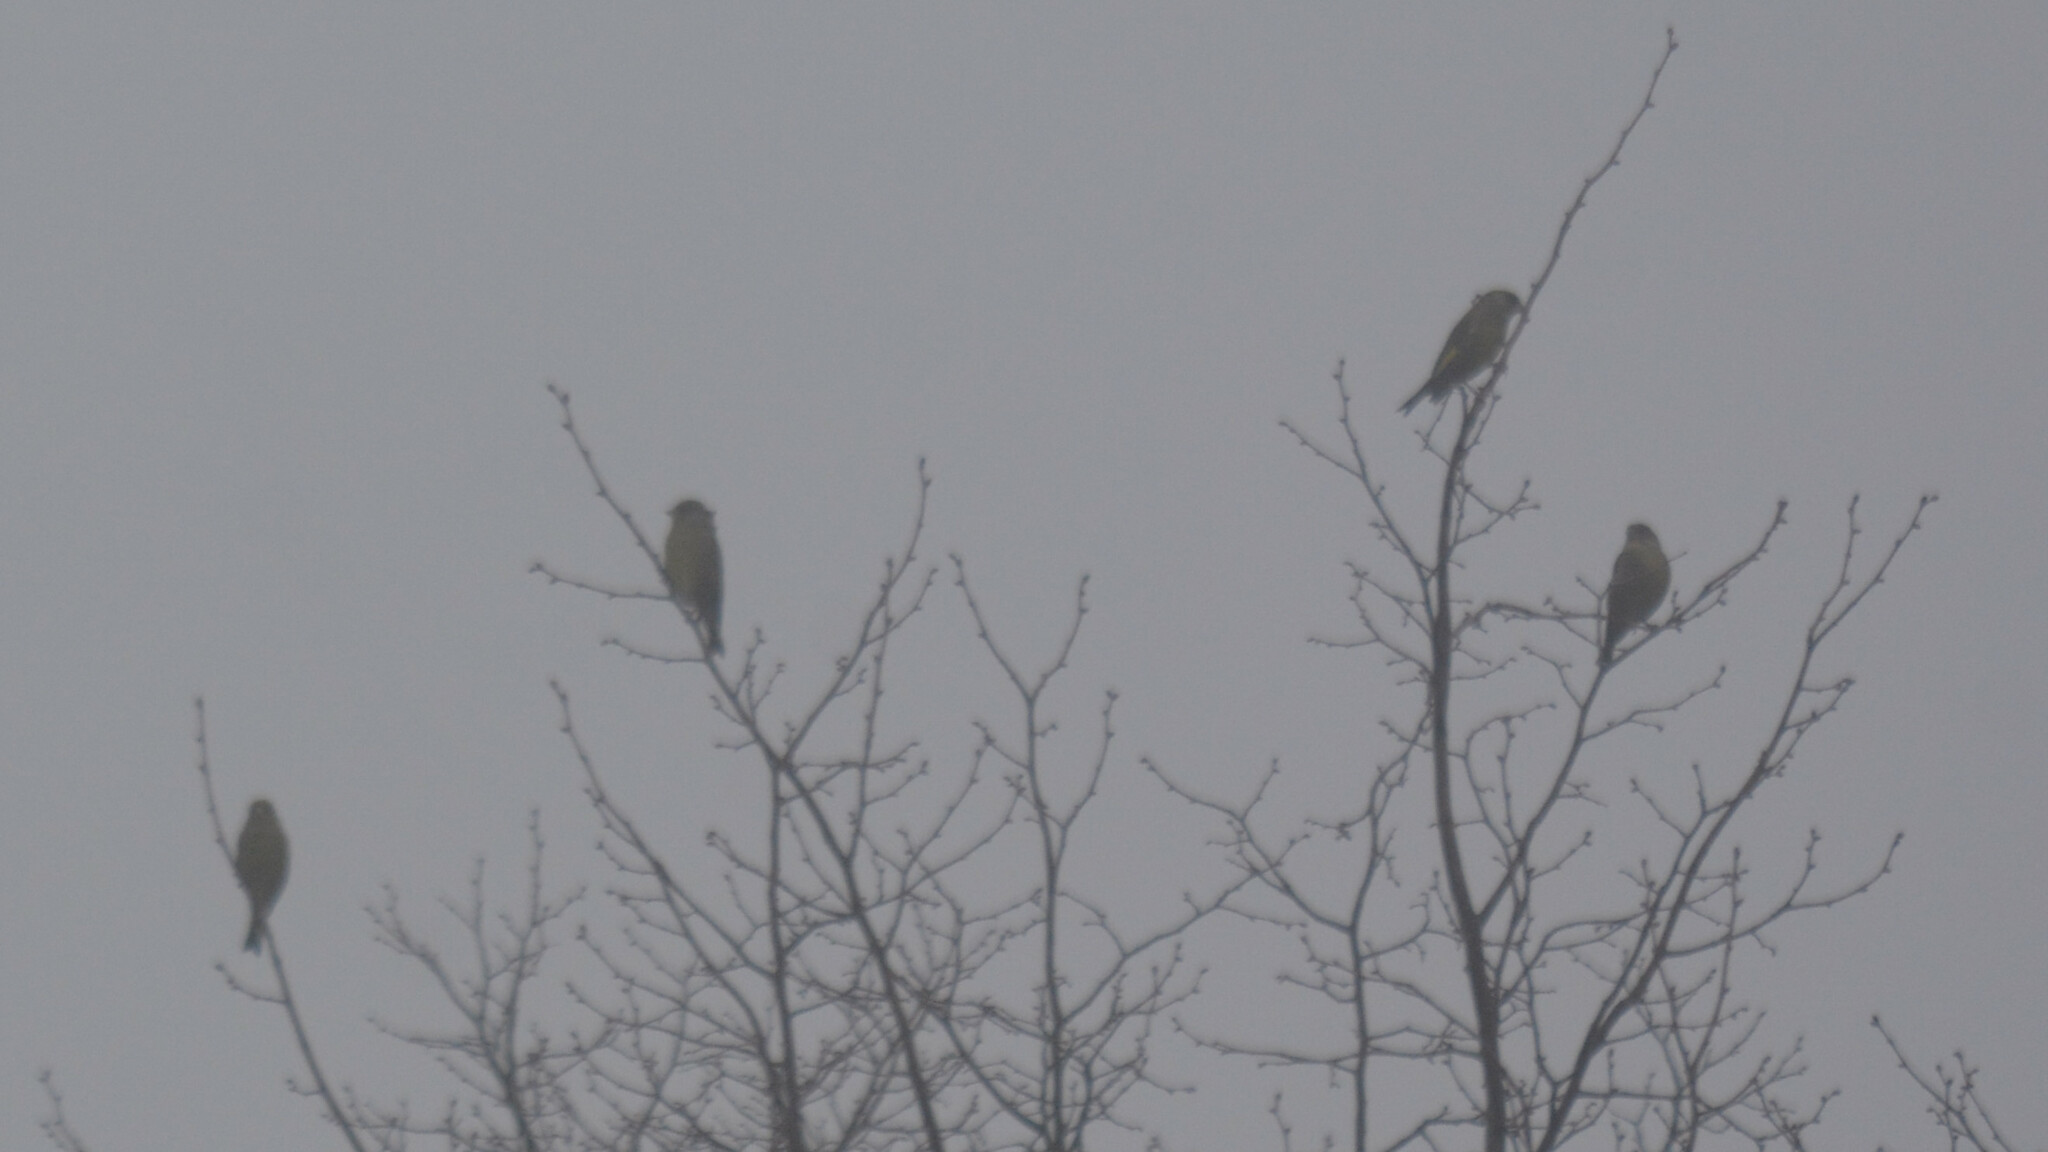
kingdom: Plantae
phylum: Tracheophyta
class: Liliopsida
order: Poales
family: Poaceae
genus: Chloris
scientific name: Chloris chloris
